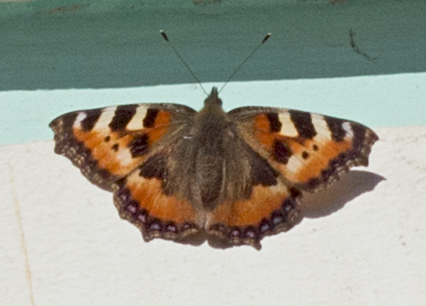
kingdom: Animalia
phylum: Arthropoda
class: Insecta
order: Lepidoptera
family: Nymphalidae
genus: Aglais
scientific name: Aglais urticae
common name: Small tortoiseshell
